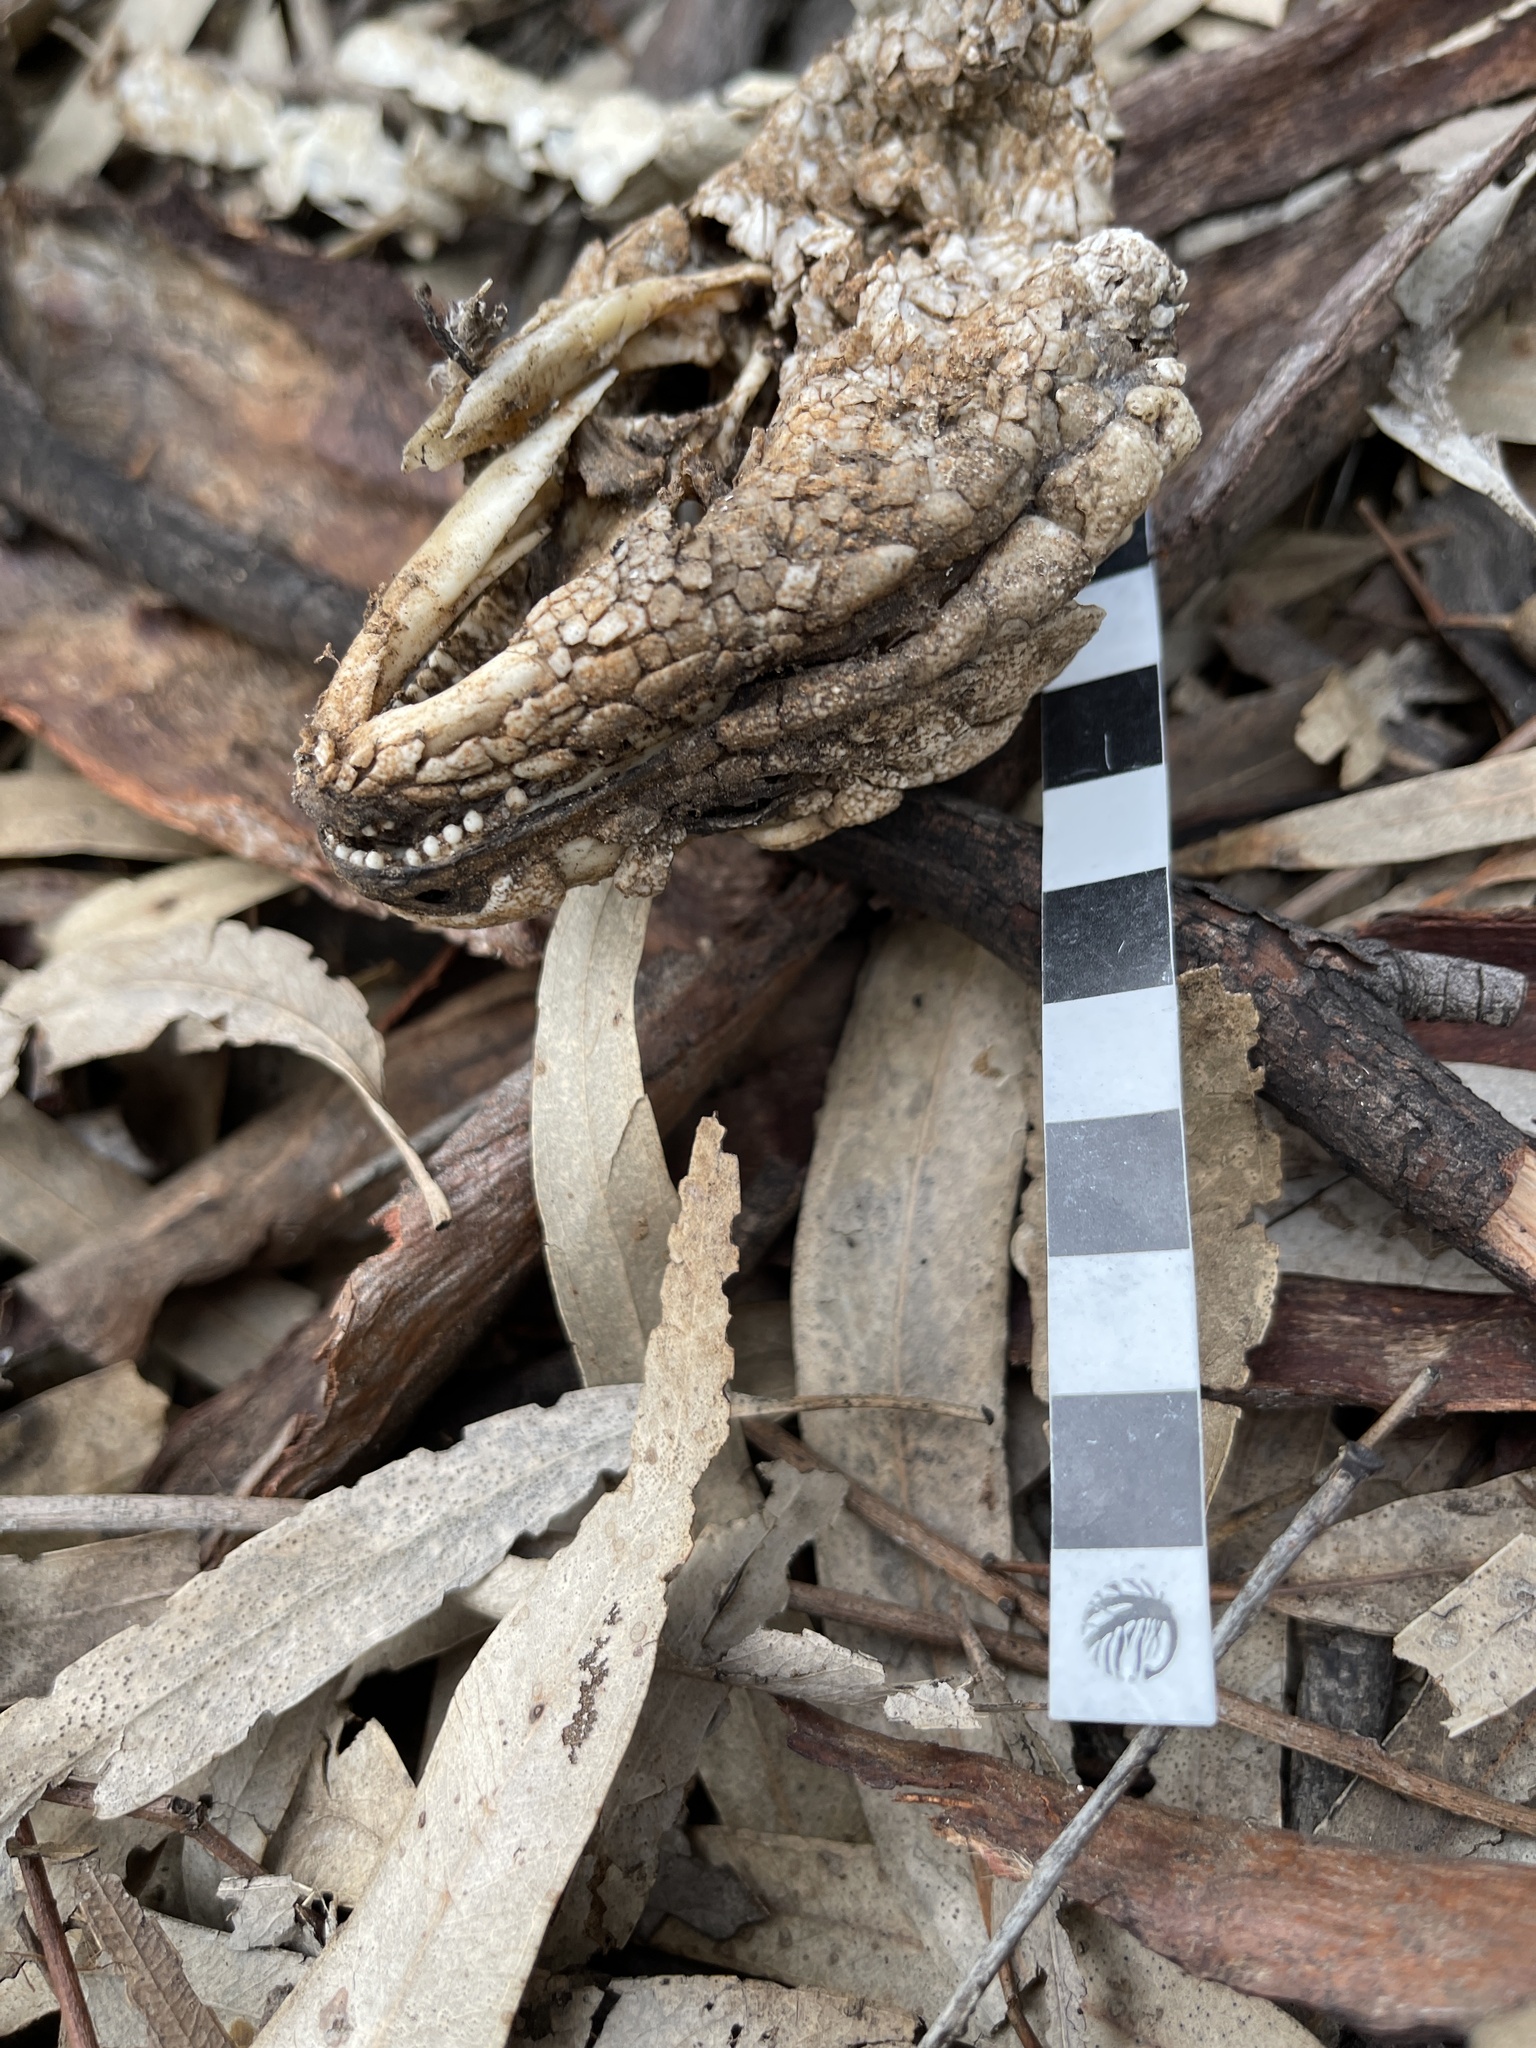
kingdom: Animalia
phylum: Chordata
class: Squamata
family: Scincidae
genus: Tiliqua
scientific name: Tiliqua rugosa
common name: Pinecone lizard
